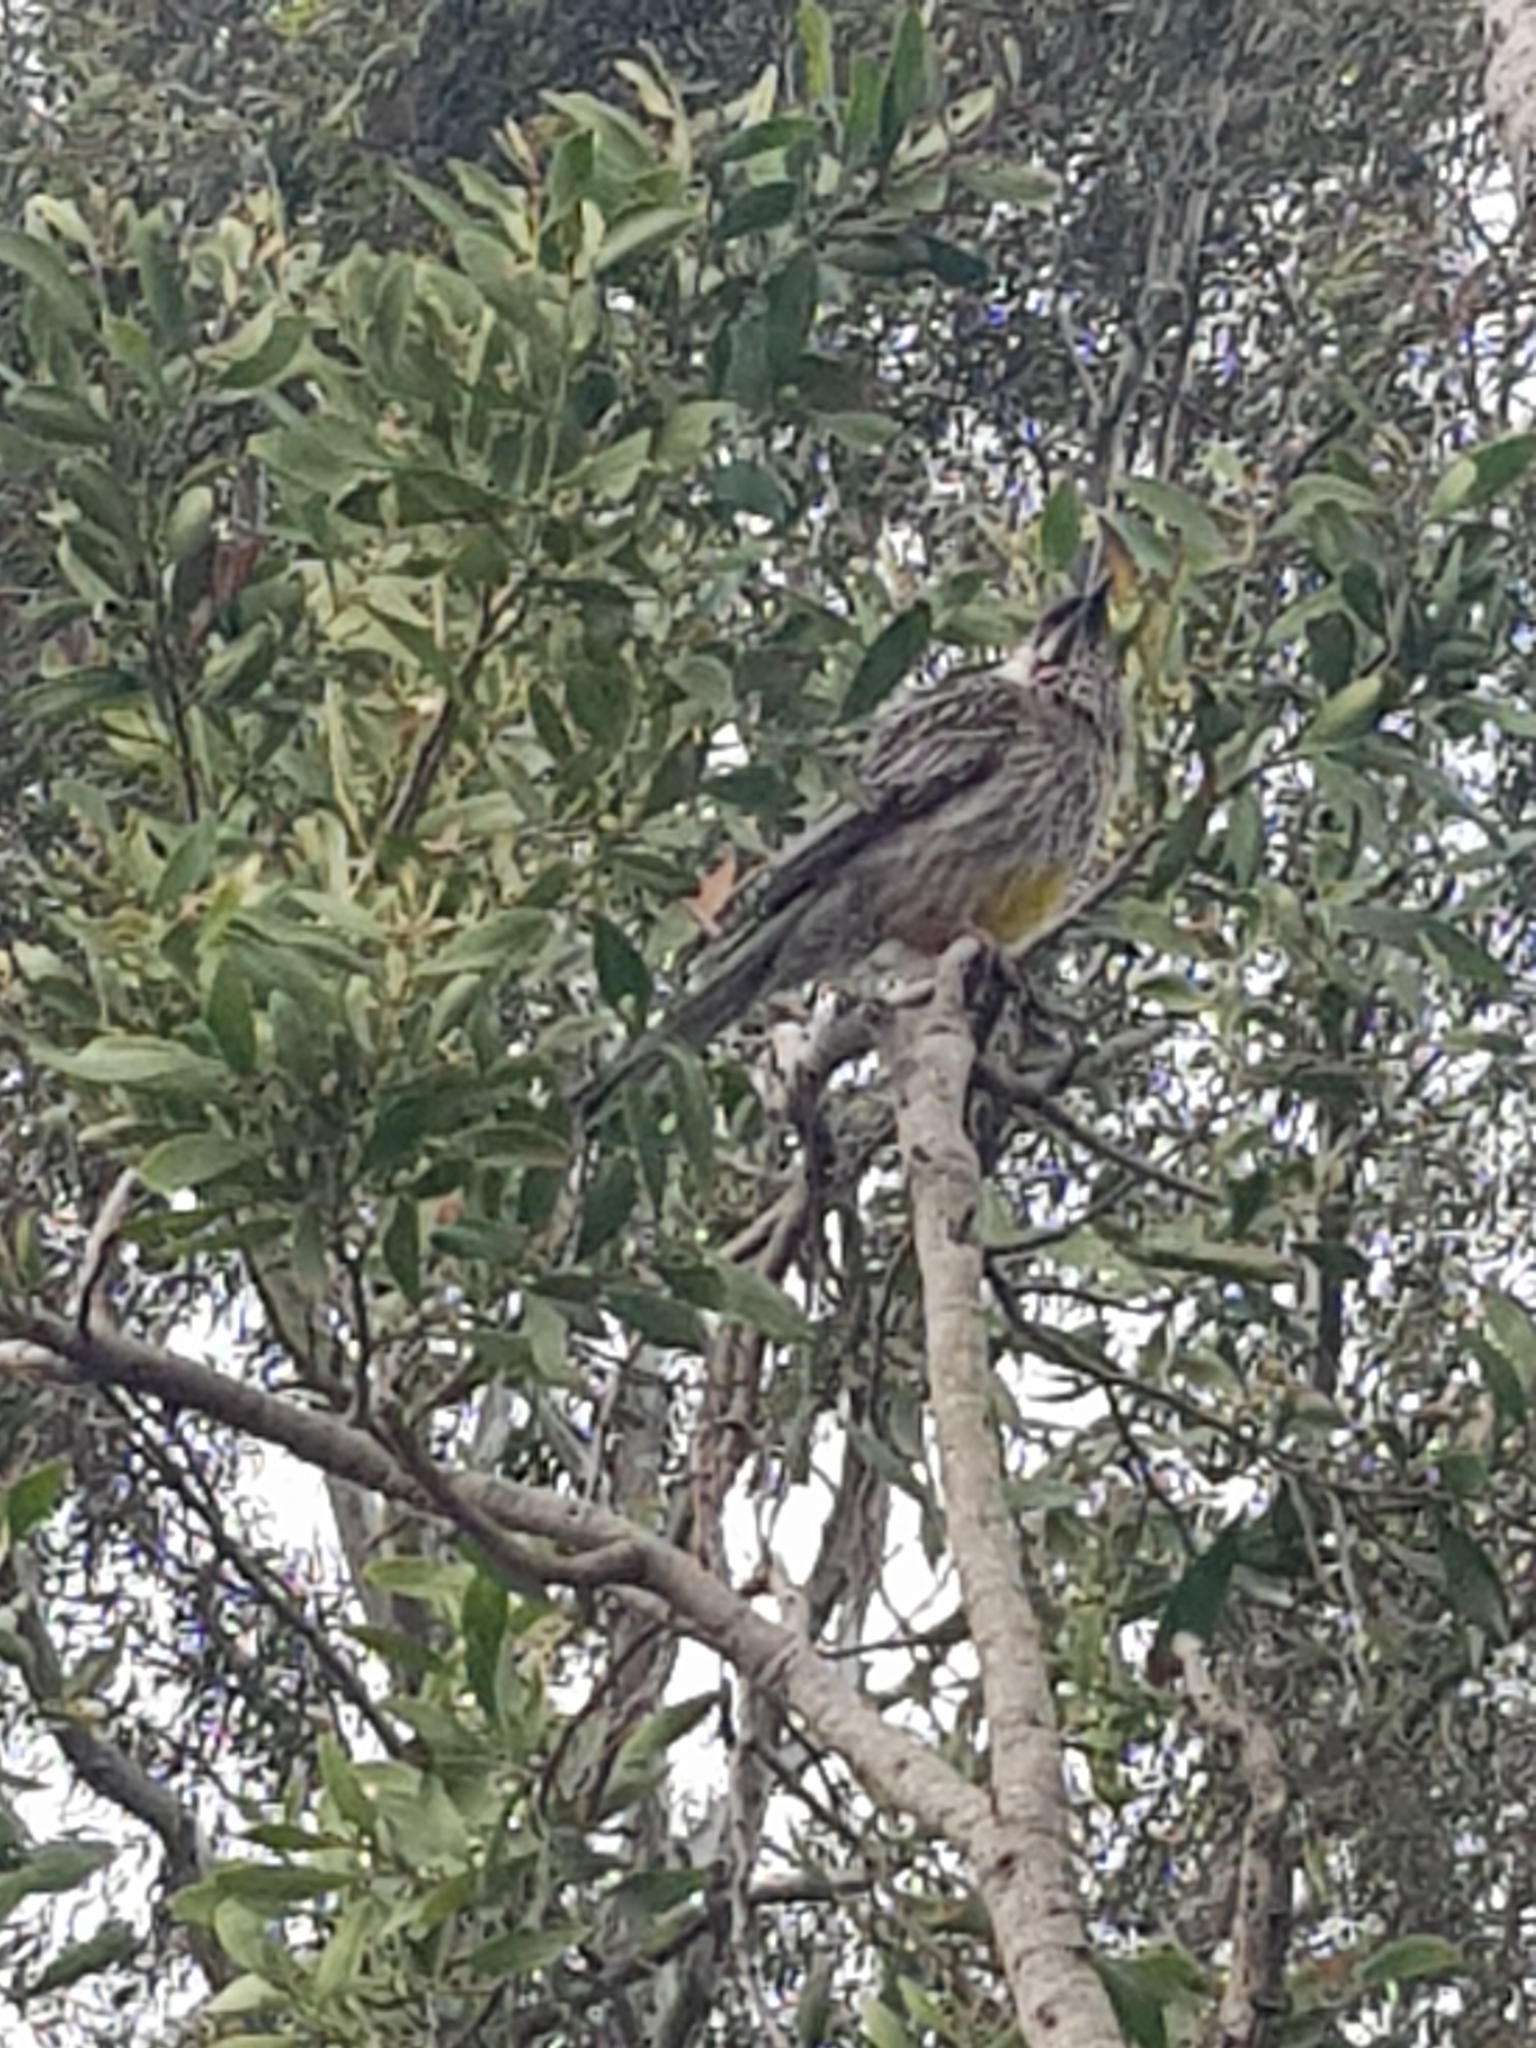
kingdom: Animalia
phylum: Chordata
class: Aves
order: Passeriformes
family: Meliphagidae
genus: Anthochaera
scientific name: Anthochaera carunculata
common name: Red wattlebird
